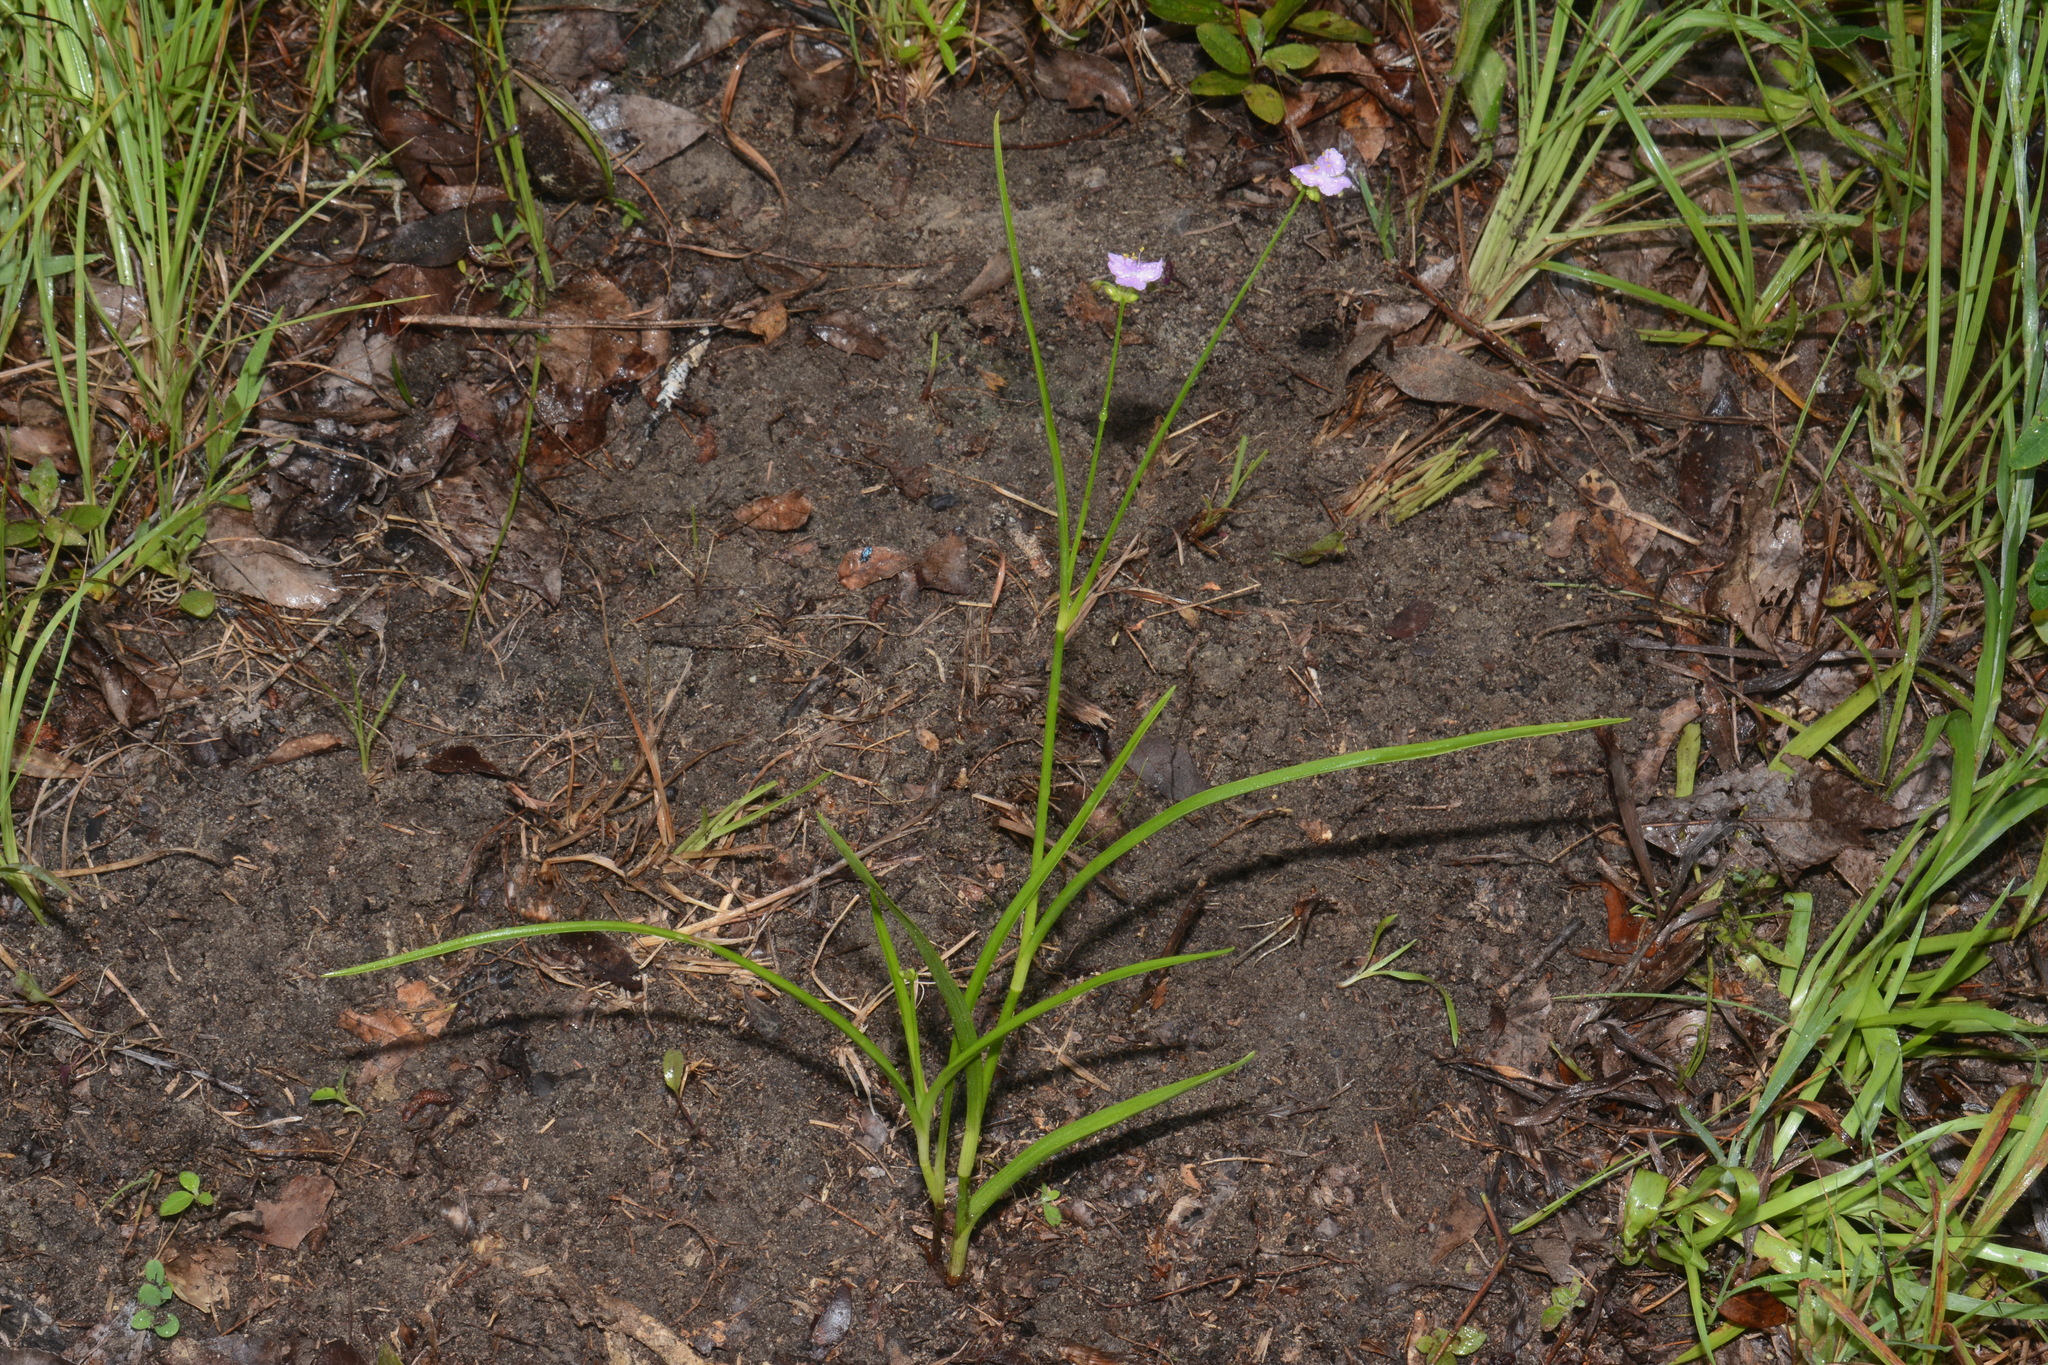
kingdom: Plantae
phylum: Tracheophyta
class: Liliopsida
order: Commelinales
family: Commelinaceae
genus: Callisia
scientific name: Callisia rosea
